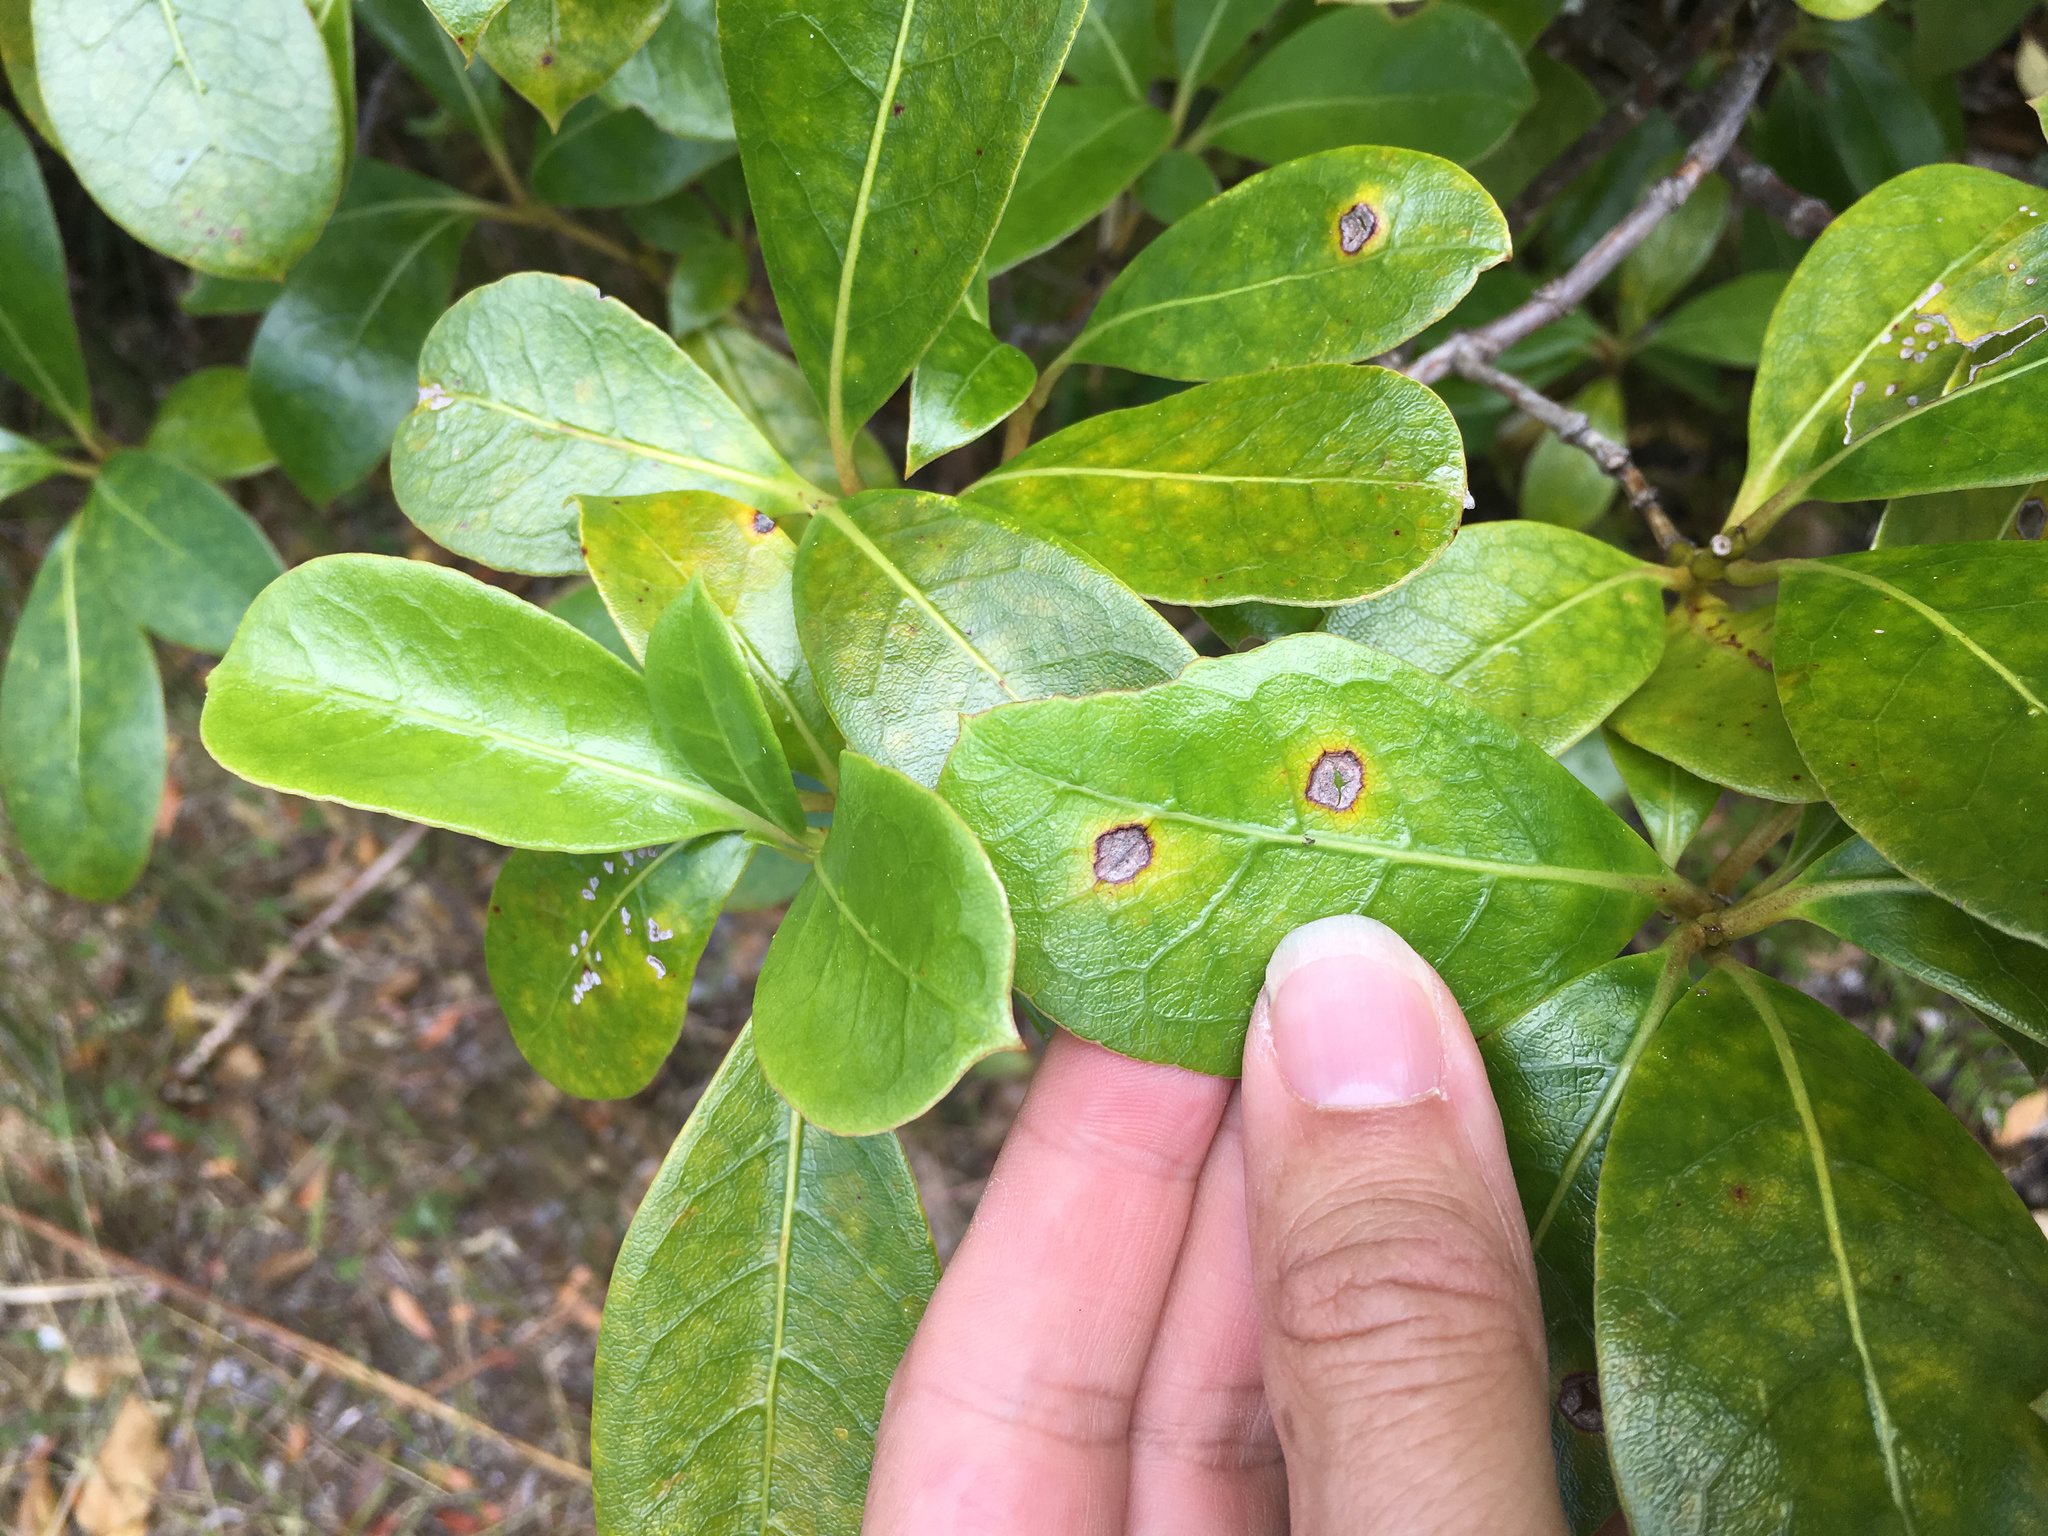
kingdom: Fungi
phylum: Basidiomycota
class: Pucciniomycetes
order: Pucciniales
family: Pucciniaceae
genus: Puccinia
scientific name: Puccinia coprosmae
